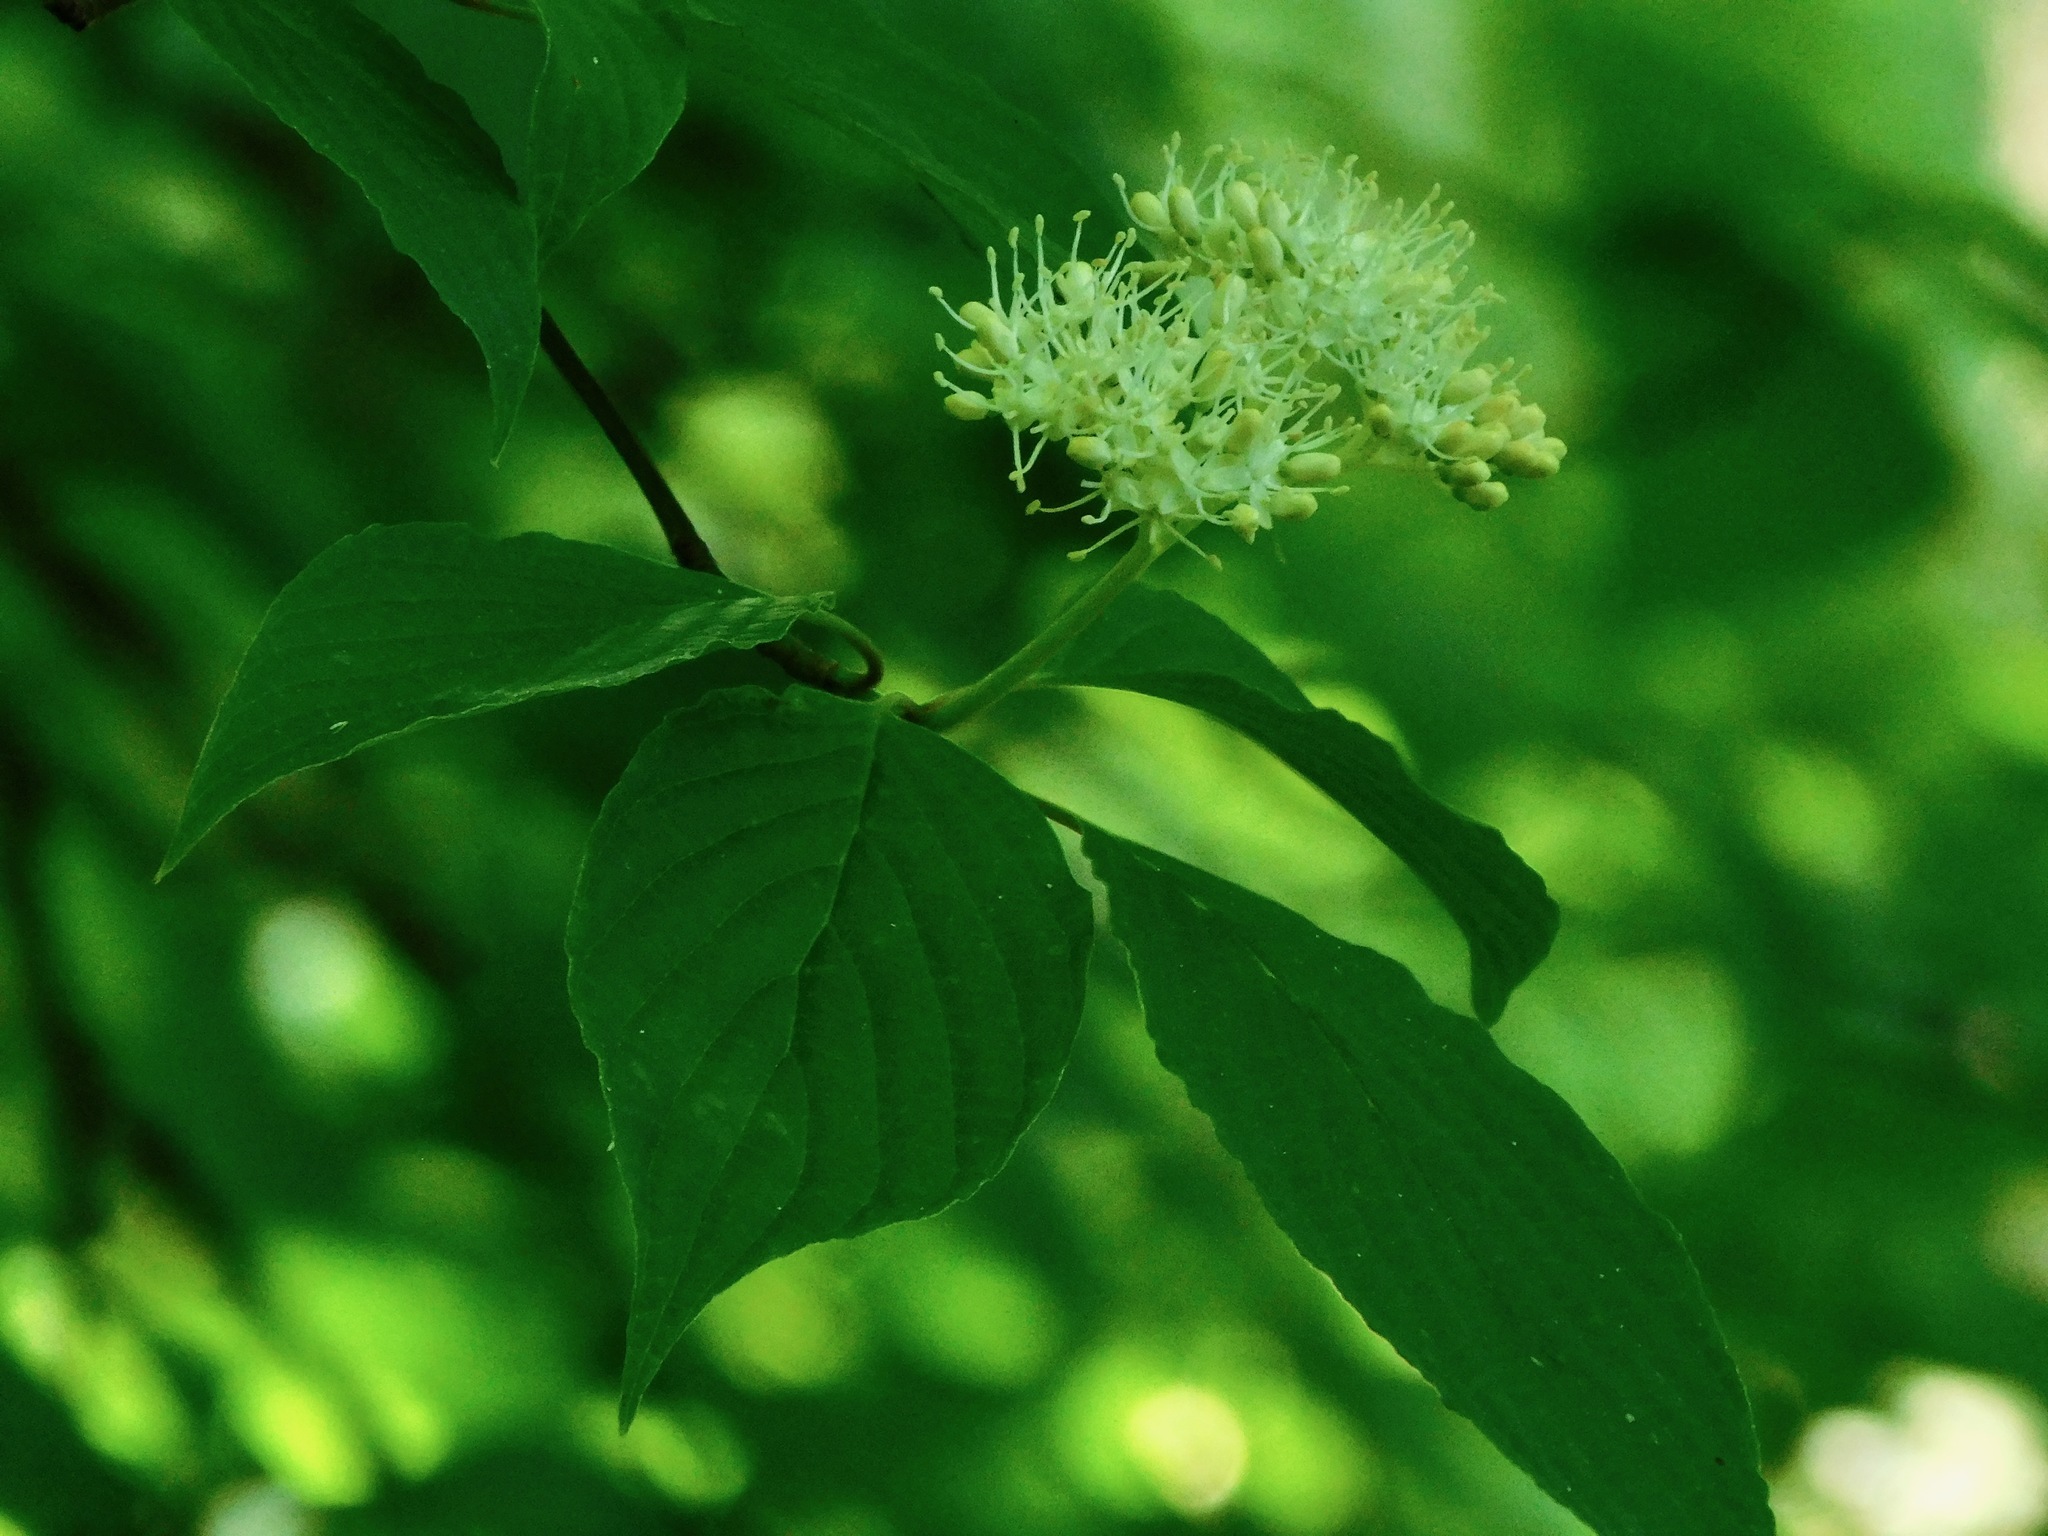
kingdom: Plantae
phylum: Tracheophyta
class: Magnoliopsida
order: Cornales
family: Cornaceae
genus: Cornus
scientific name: Cornus alternifolia
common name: Pagoda dogwood
